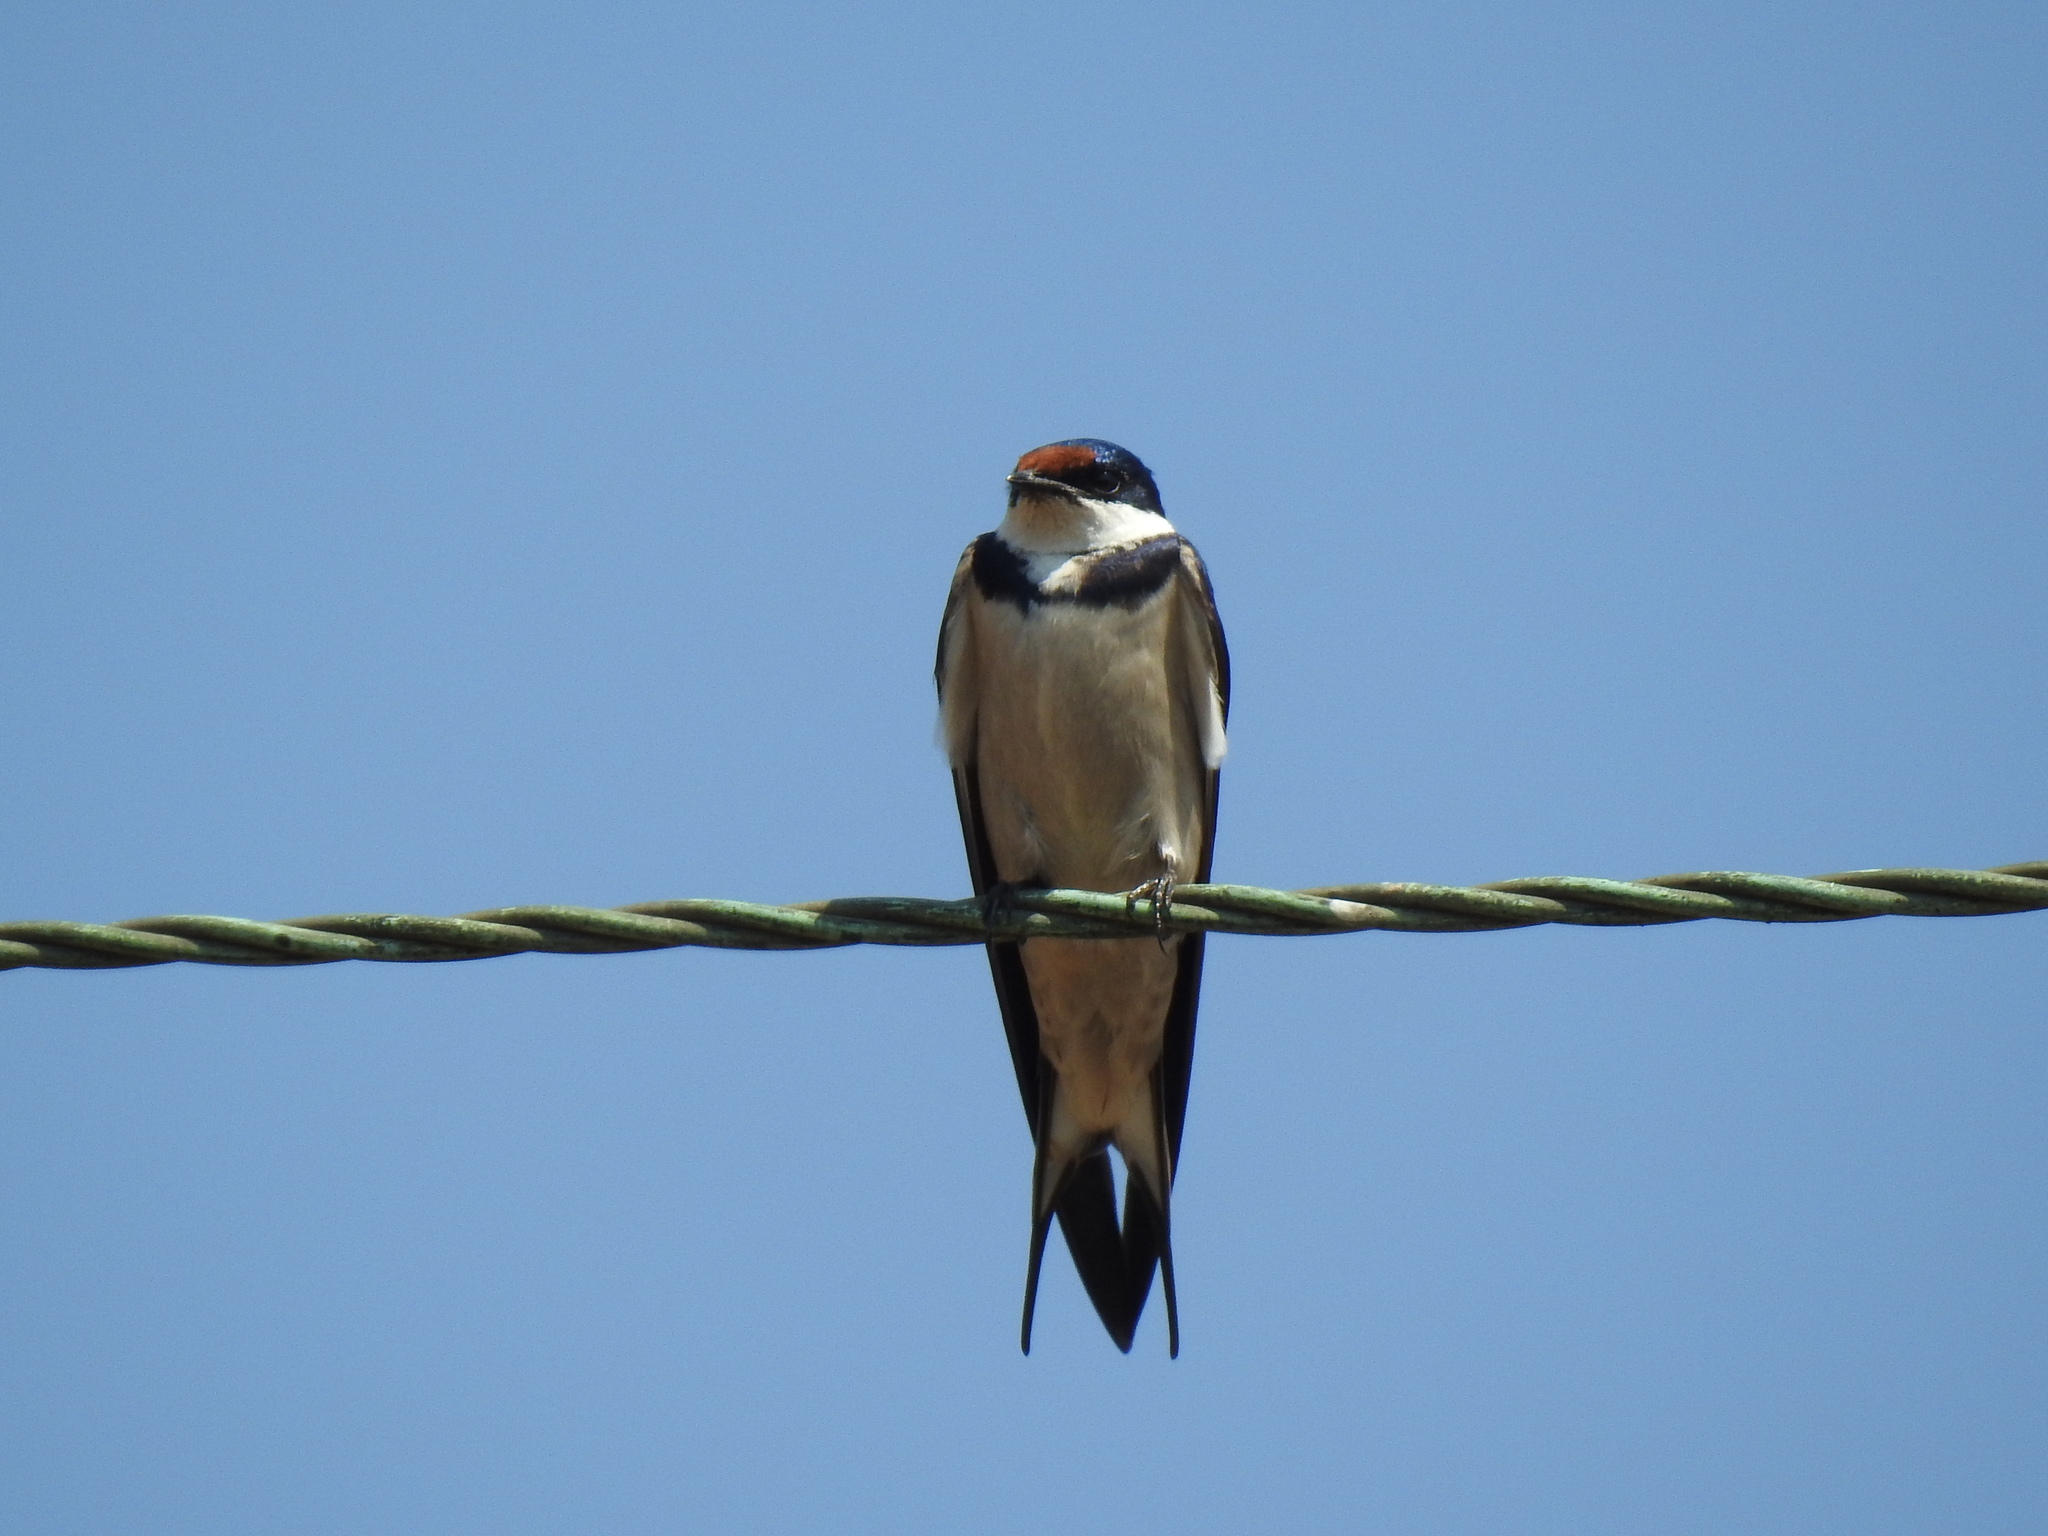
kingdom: Animalia
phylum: Chordata
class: Aves
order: Passeriformes
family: Hirundinidae
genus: Hirundo
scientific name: Hirundo albigularis
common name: White-throated swallow
